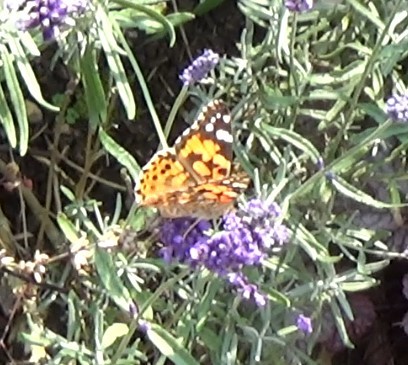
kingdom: Animalia
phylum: Arthropoda
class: Insecta
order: Lepidoptera
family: Nymphalidae
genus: Vanessa
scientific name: Vanessa cardui
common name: Painted lady
